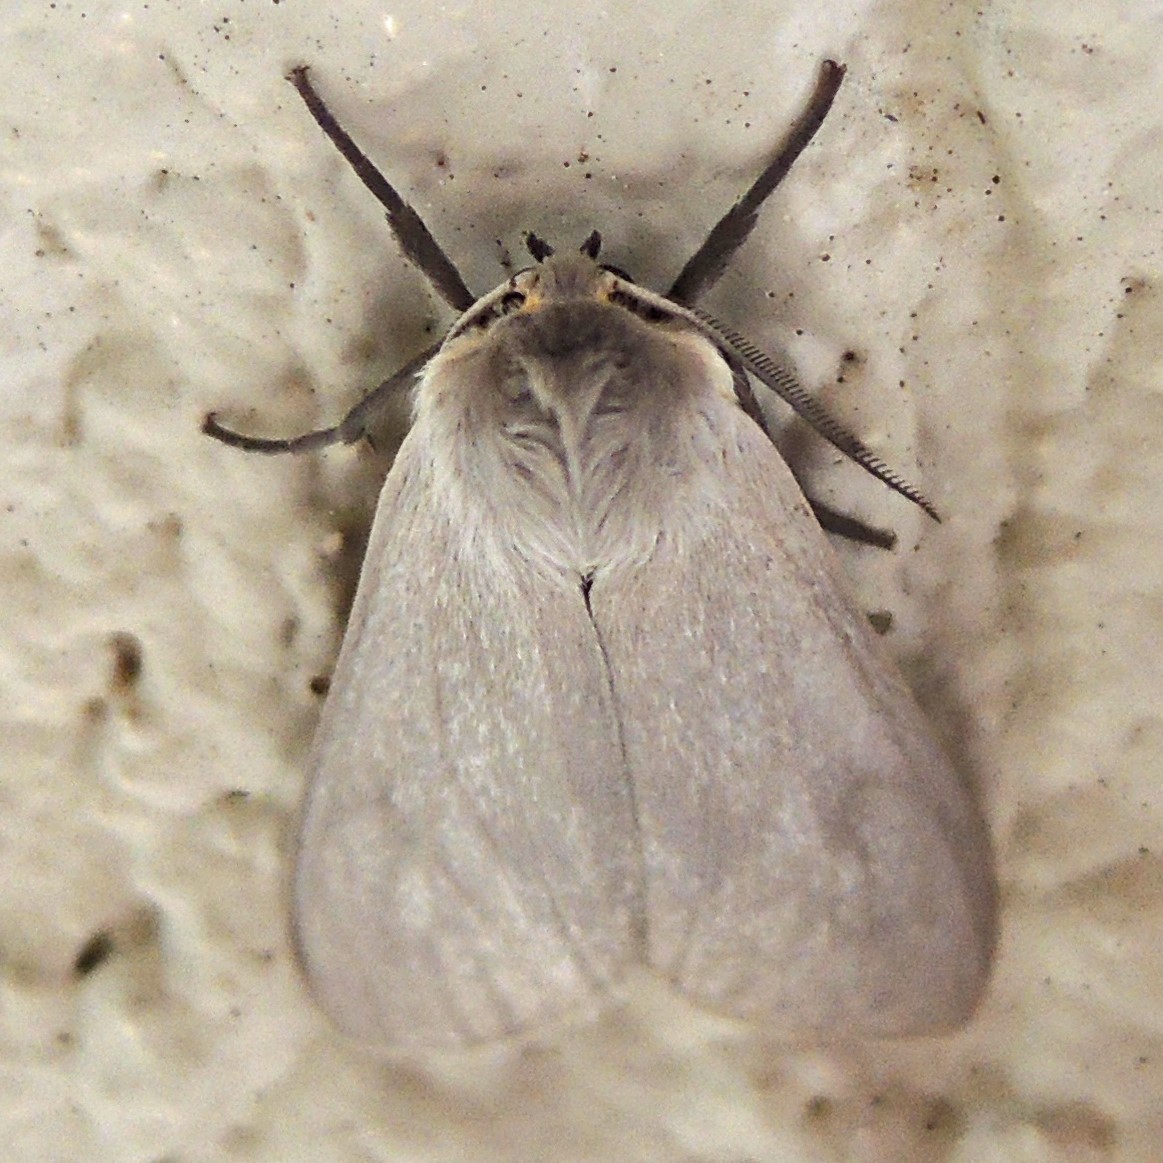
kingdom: Animalia
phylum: Arthropoda
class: Insecta
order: Lepidoptera
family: Erebidae
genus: Euchaetes
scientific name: Euchaetes egle
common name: Milkweed tussock moth
